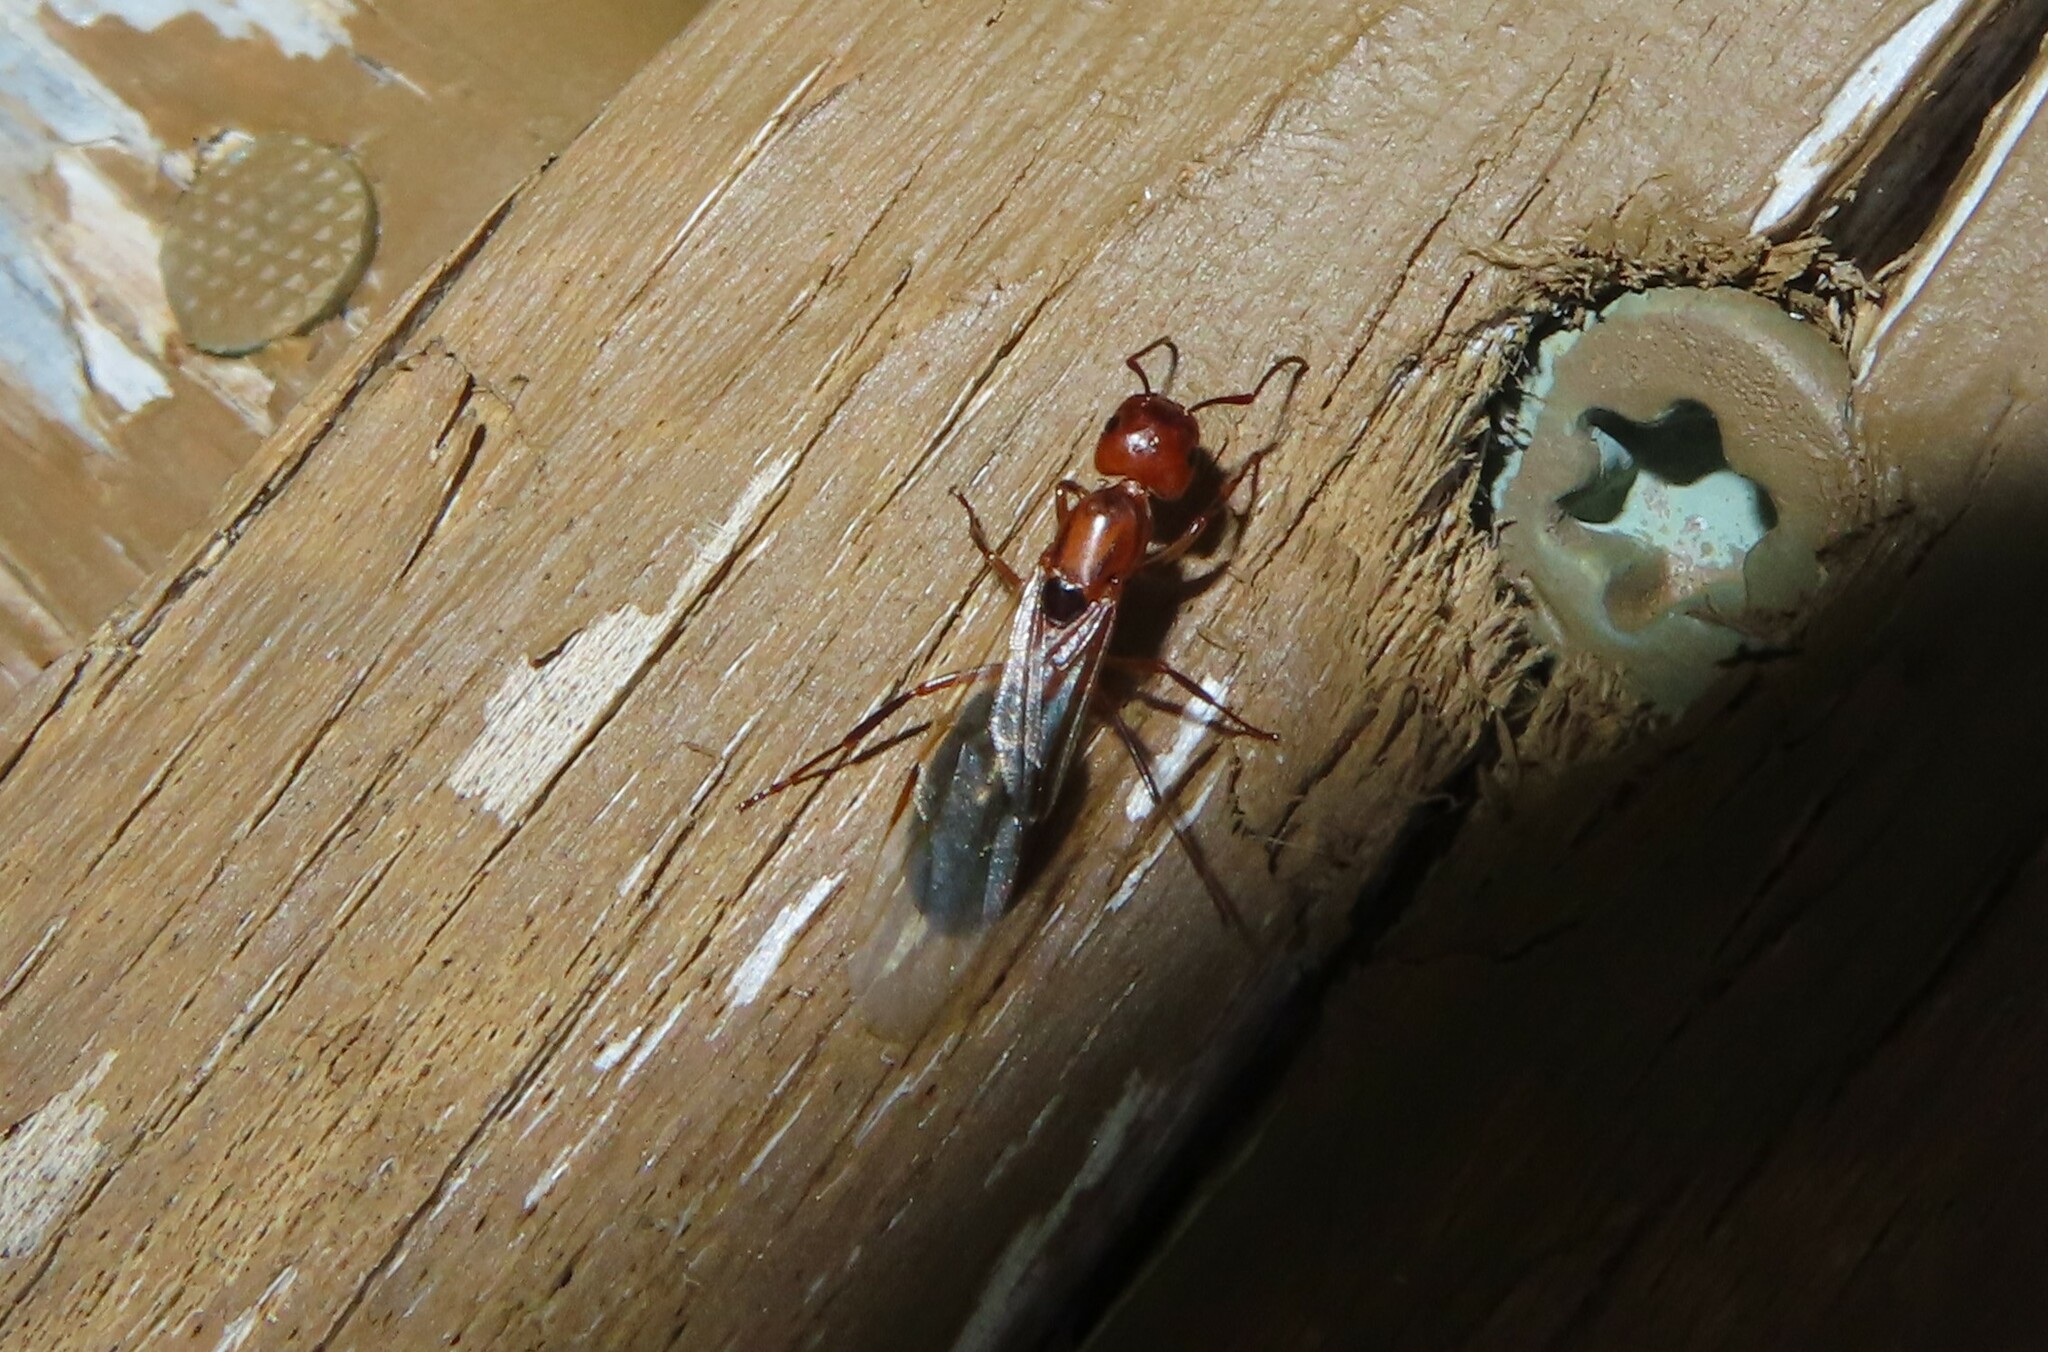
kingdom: Animalia
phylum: Arthropoda
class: Insecta
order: Hymenoptera
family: Formicidae
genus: Camponotus
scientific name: Camponotus decipiens
